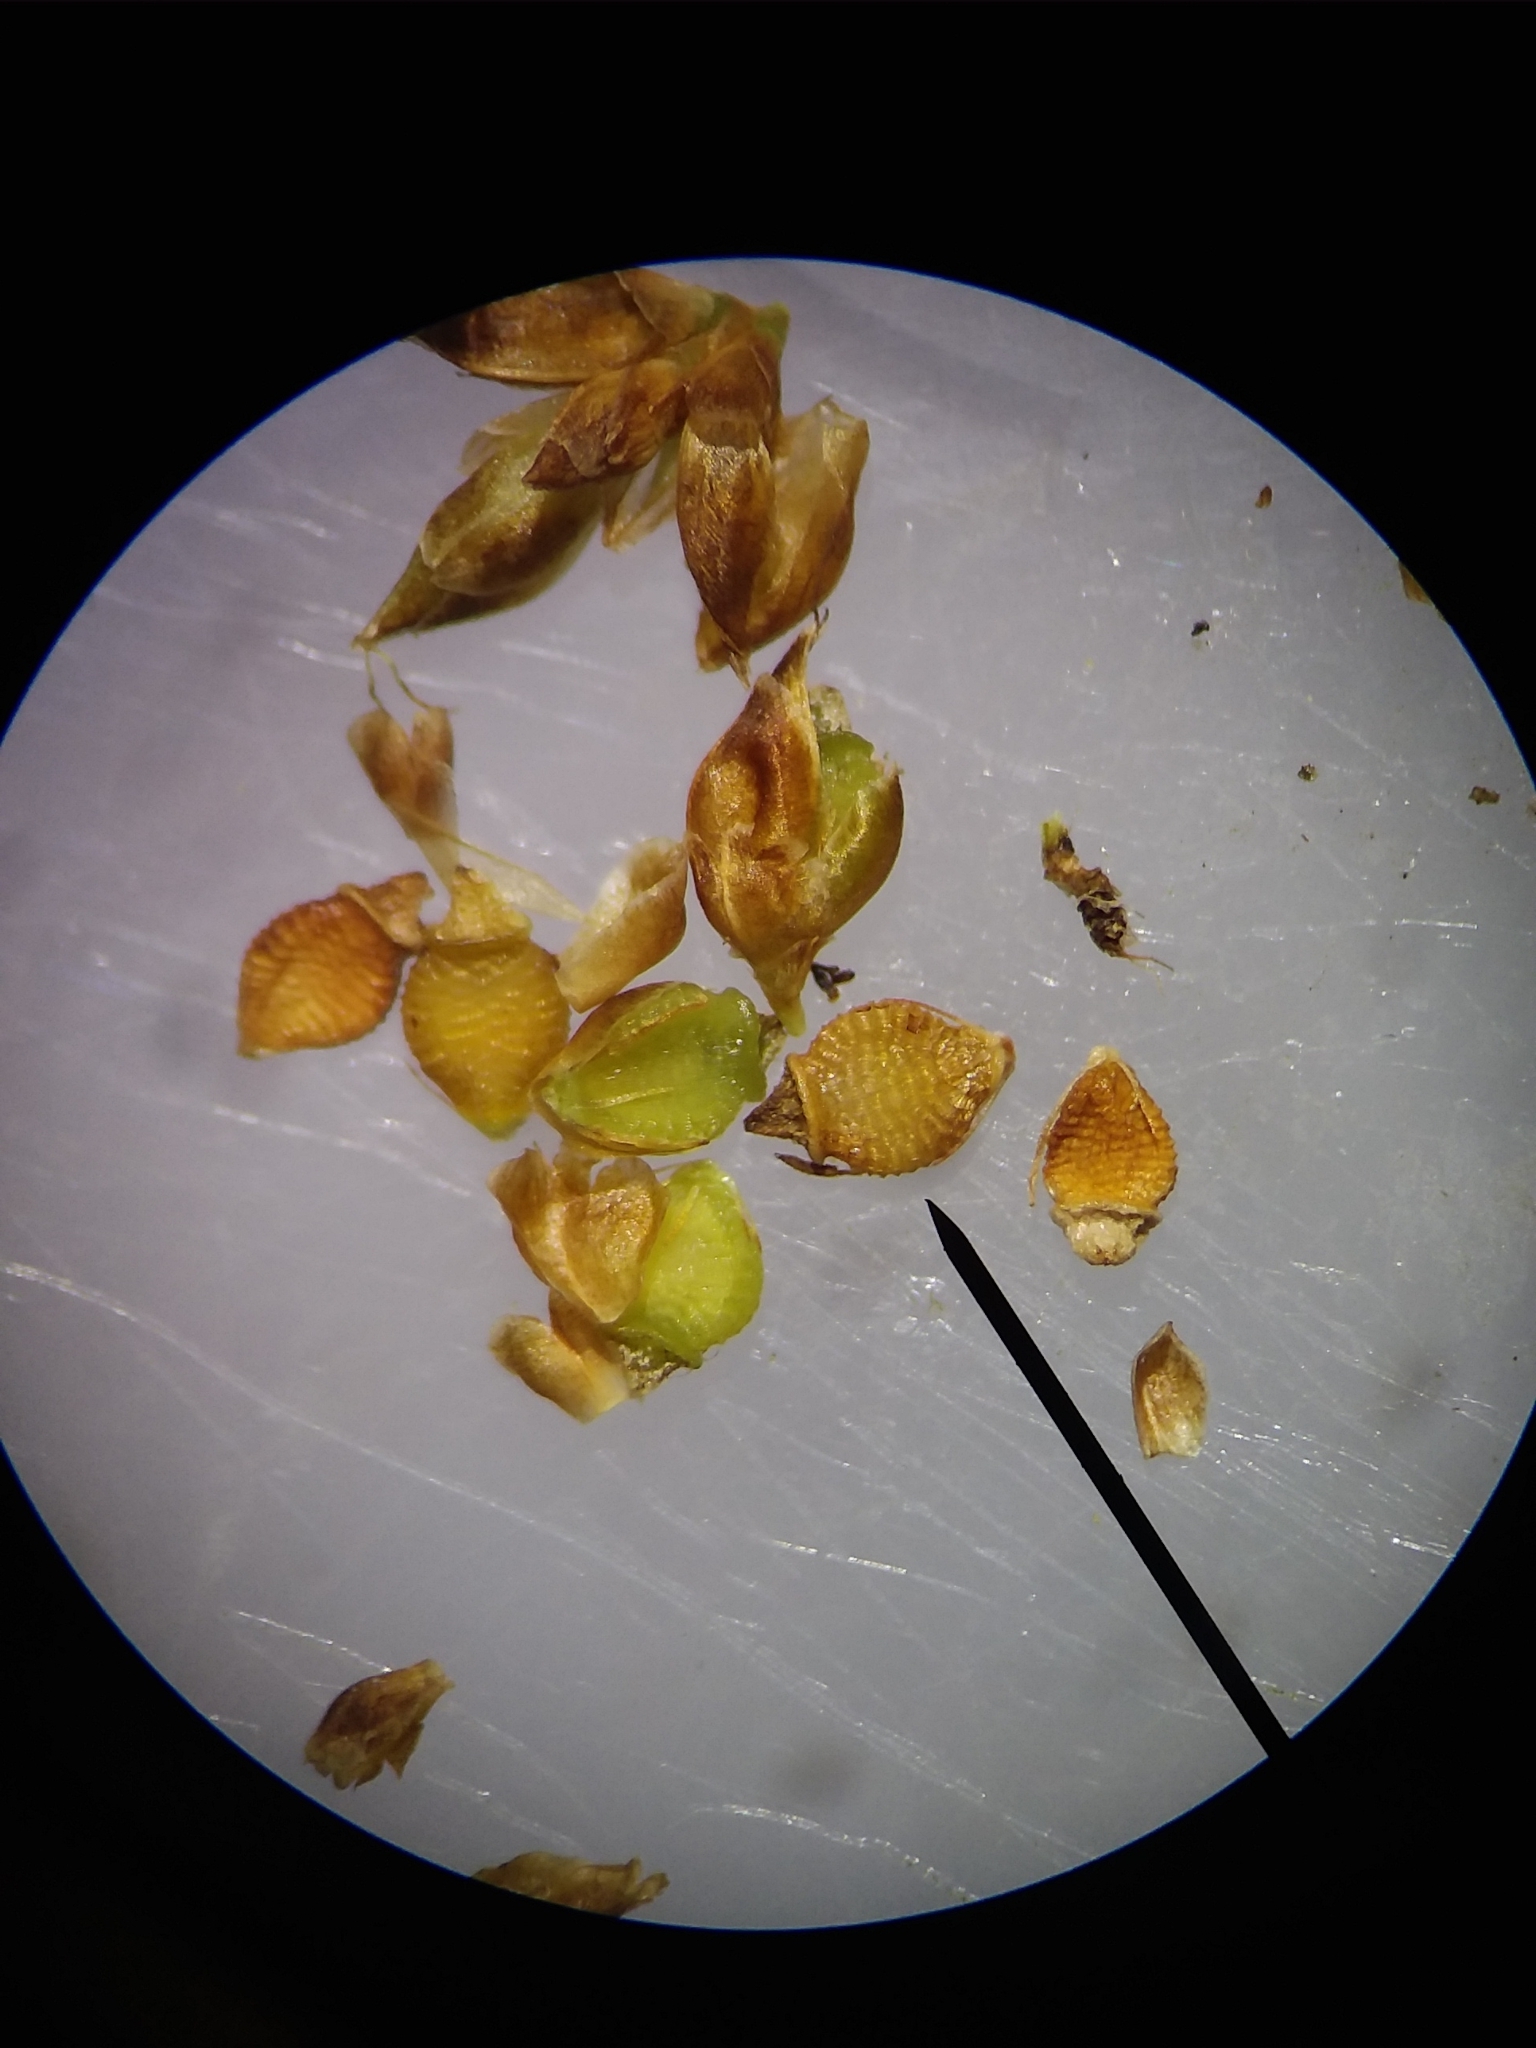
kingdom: Plantae
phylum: Tracheophyta
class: Liliopsida
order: Poales
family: Cyperaceae
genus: Rhynchospora
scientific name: Rhynchospora compressa
